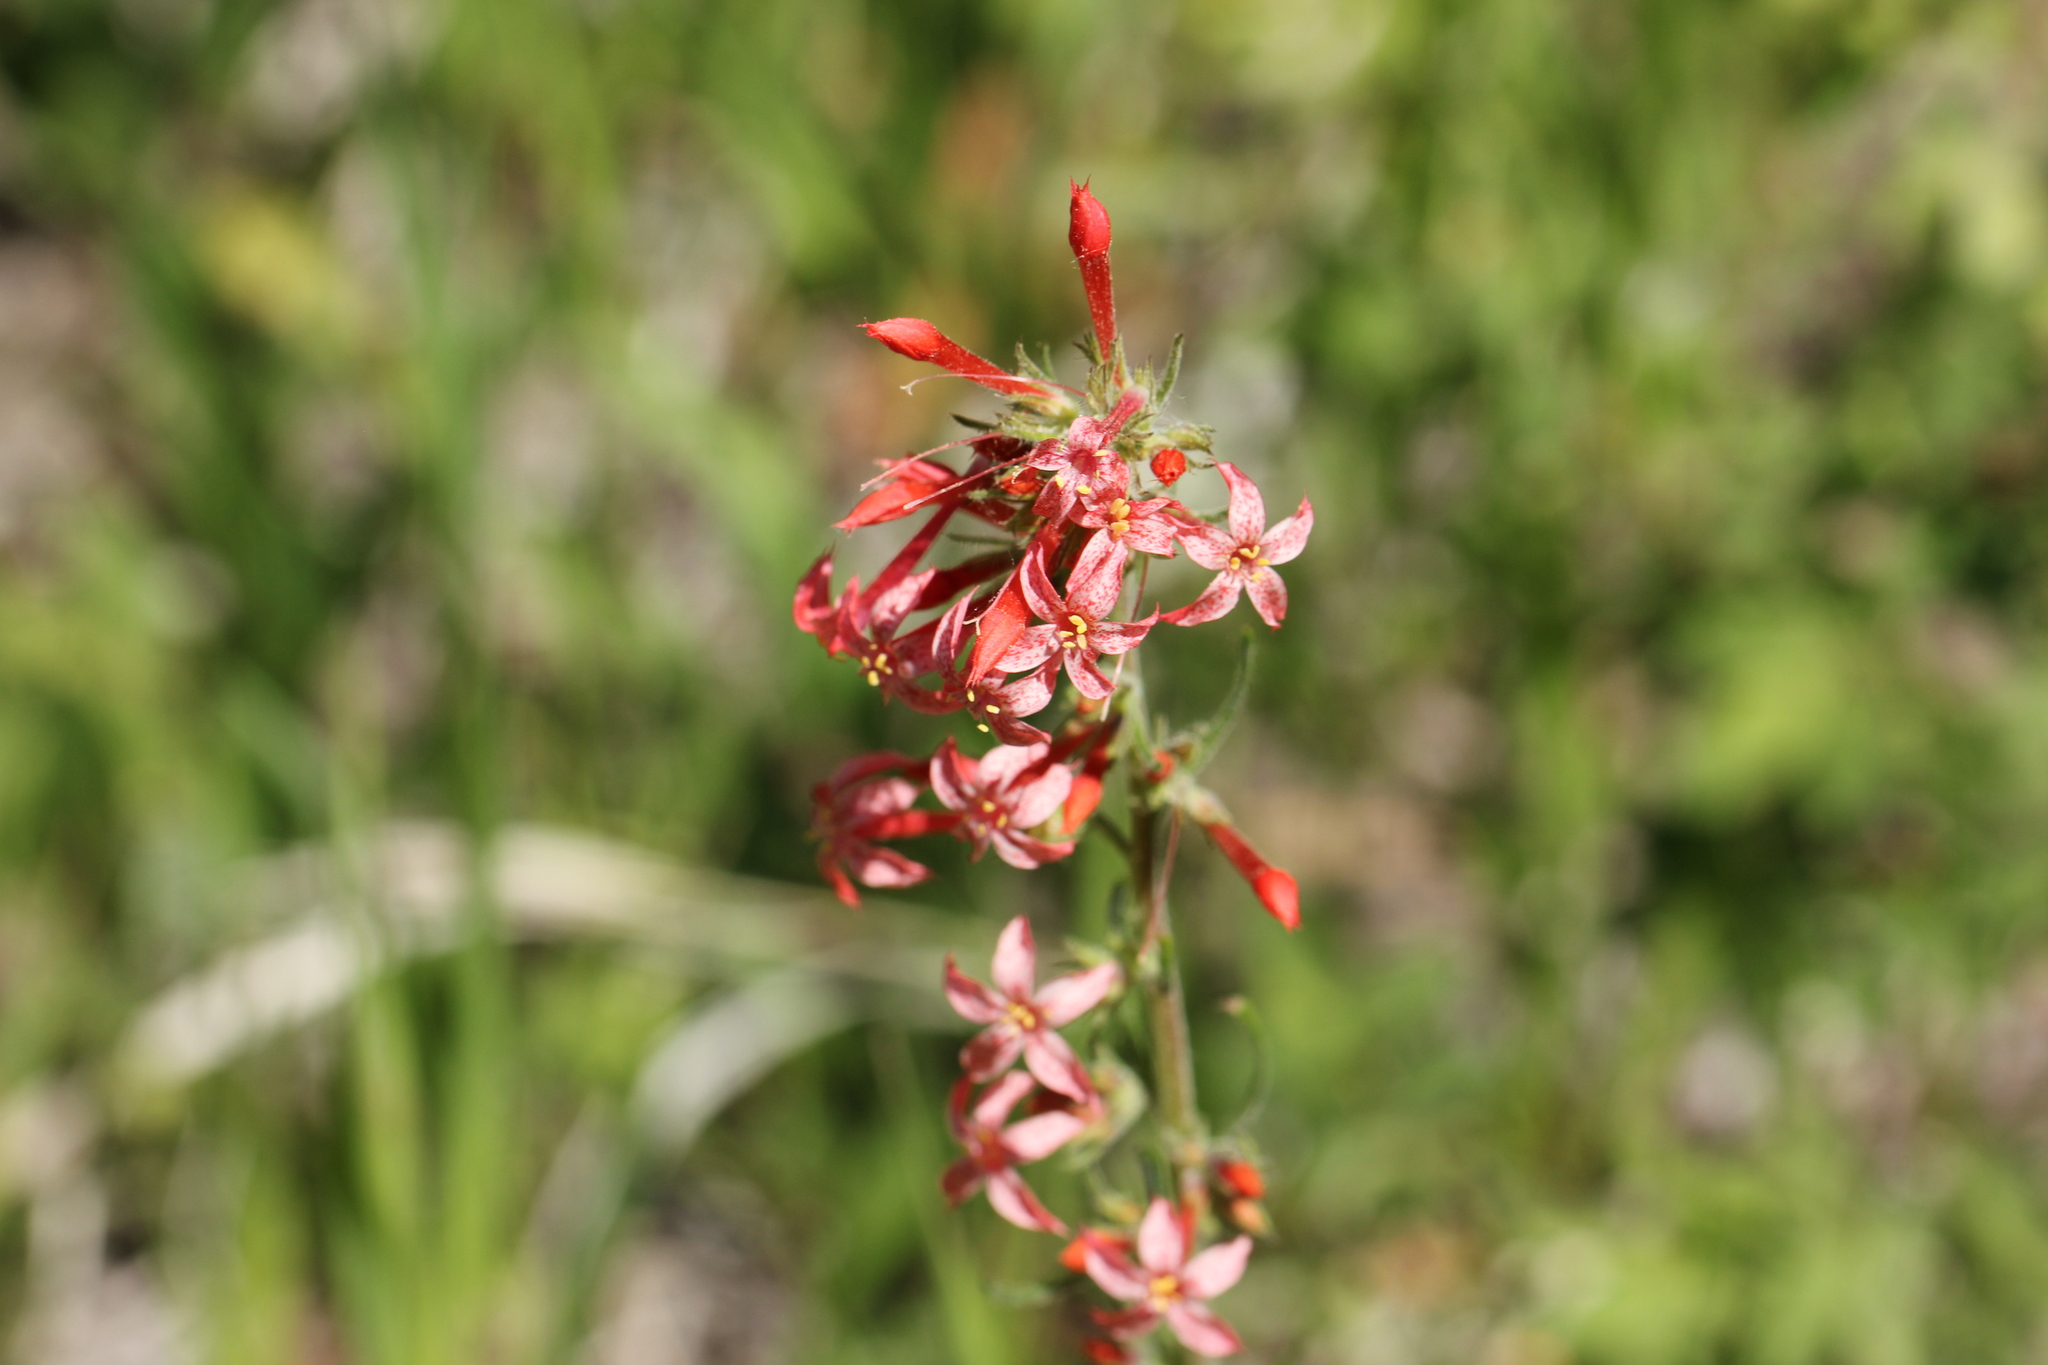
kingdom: Plantae
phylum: Tracheophyta
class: Magnoliopsida
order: Ericales
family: Polemoniaceae
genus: Ipomopsis
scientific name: Ipomopsis aggregata
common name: Scarlet gilia
